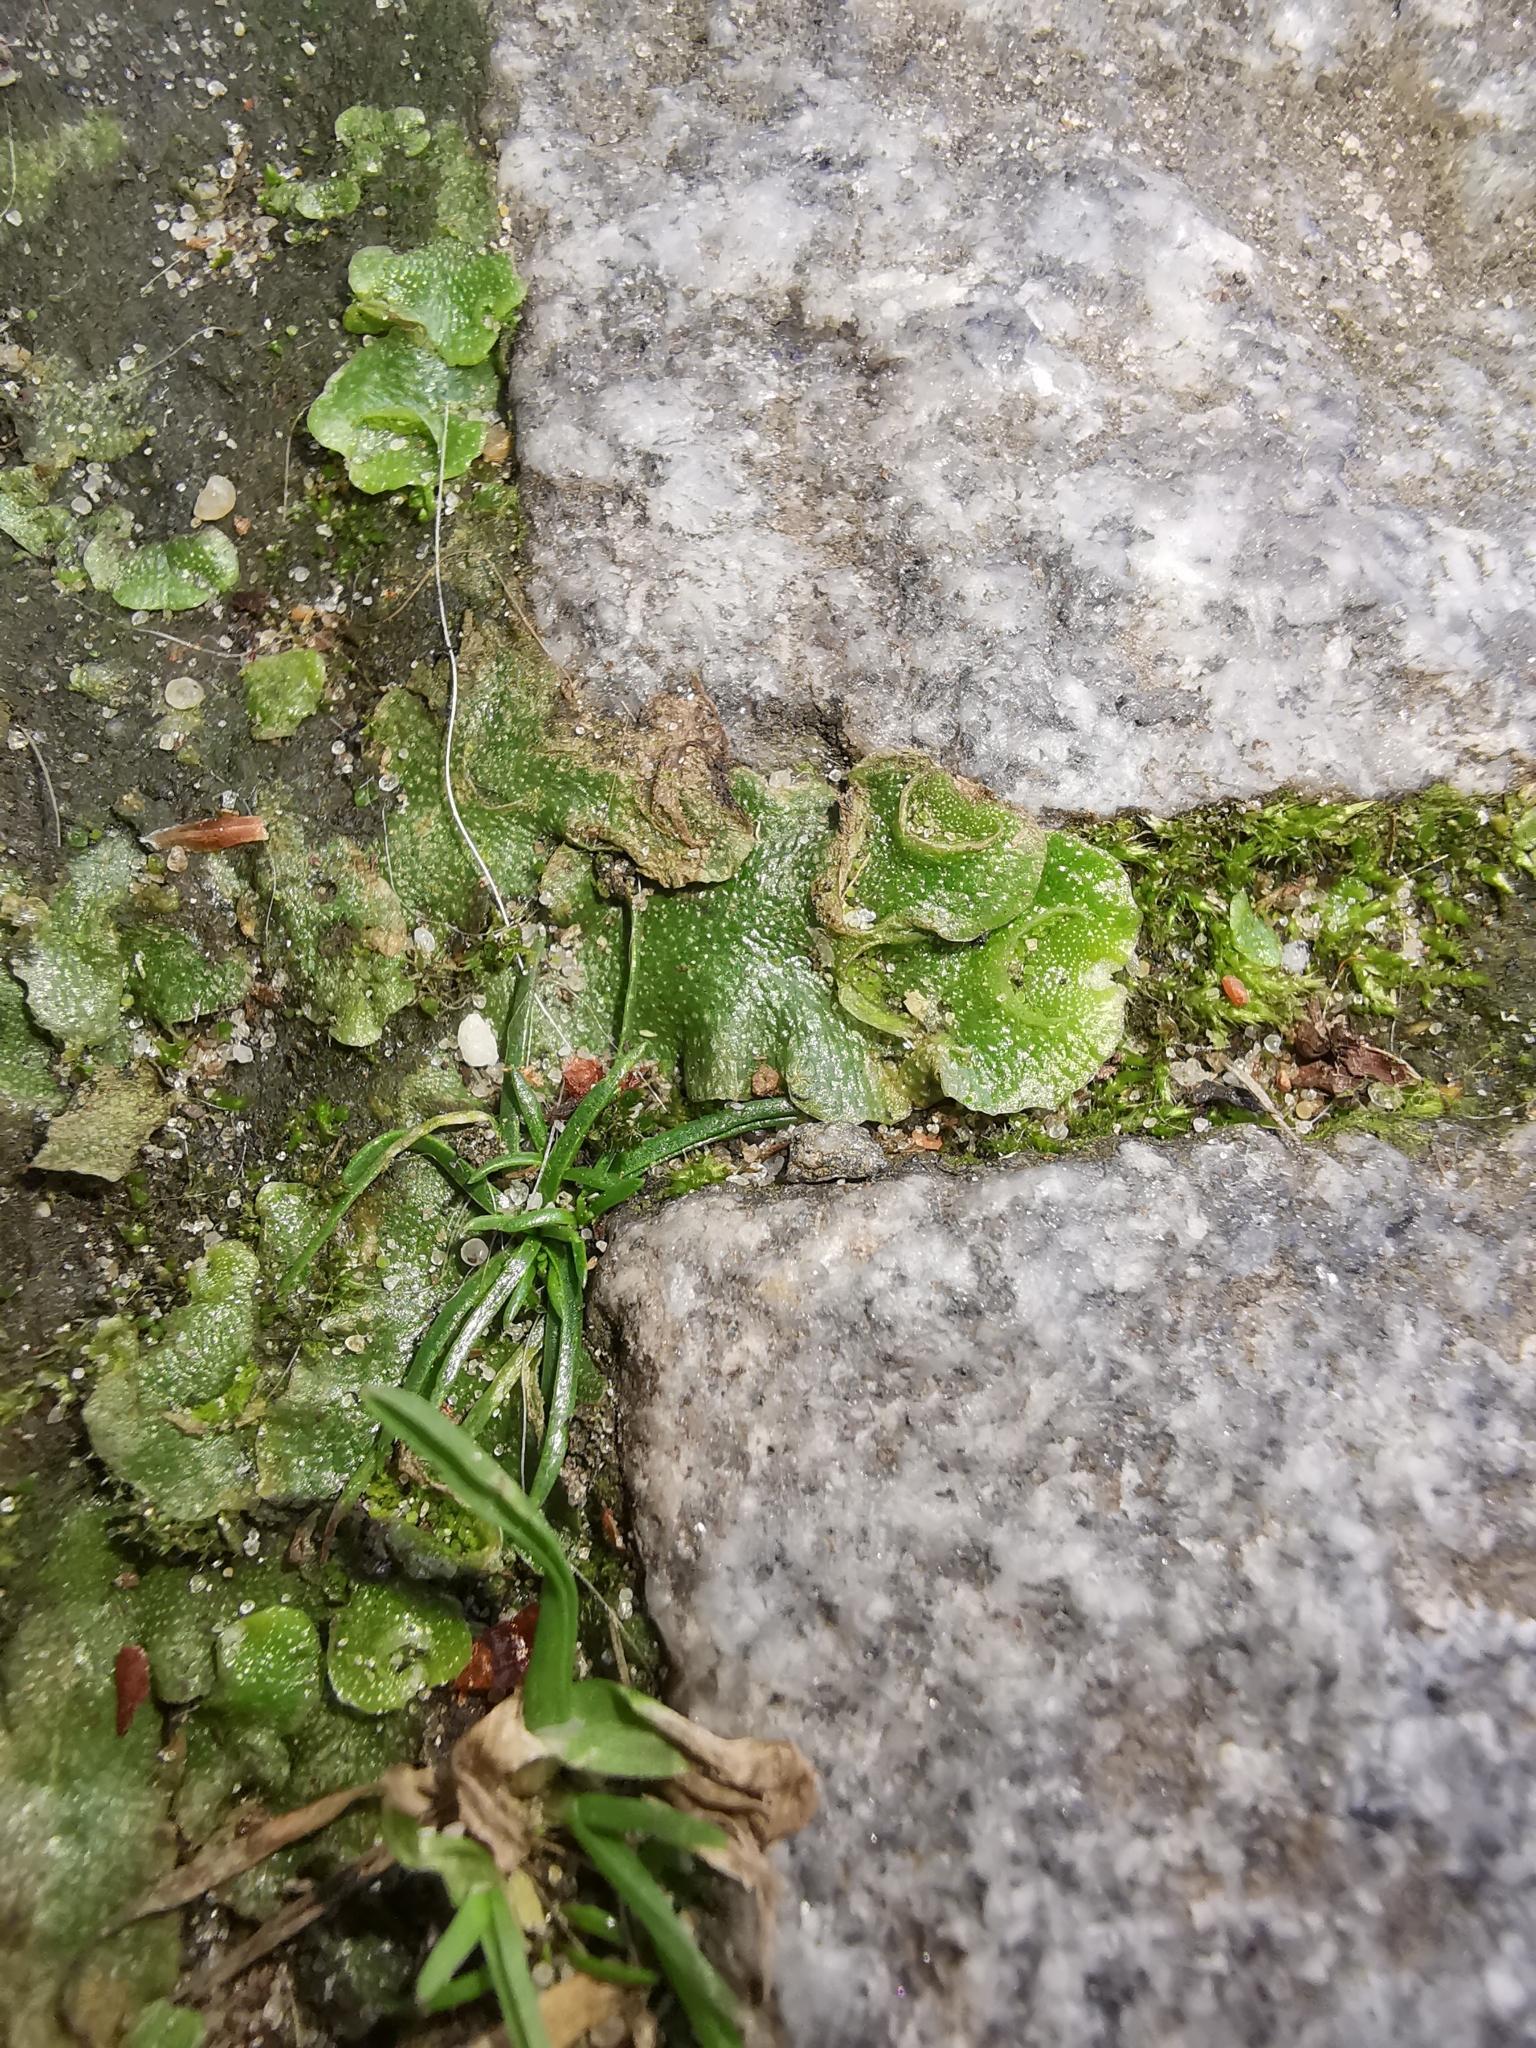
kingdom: Plantae
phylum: Marchantiophyta
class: Marchantiopsida
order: Lunulariales
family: Lunulariaceae
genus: Lunularia
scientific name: Lunularia cruciata
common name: Crescent-cup liverwort
